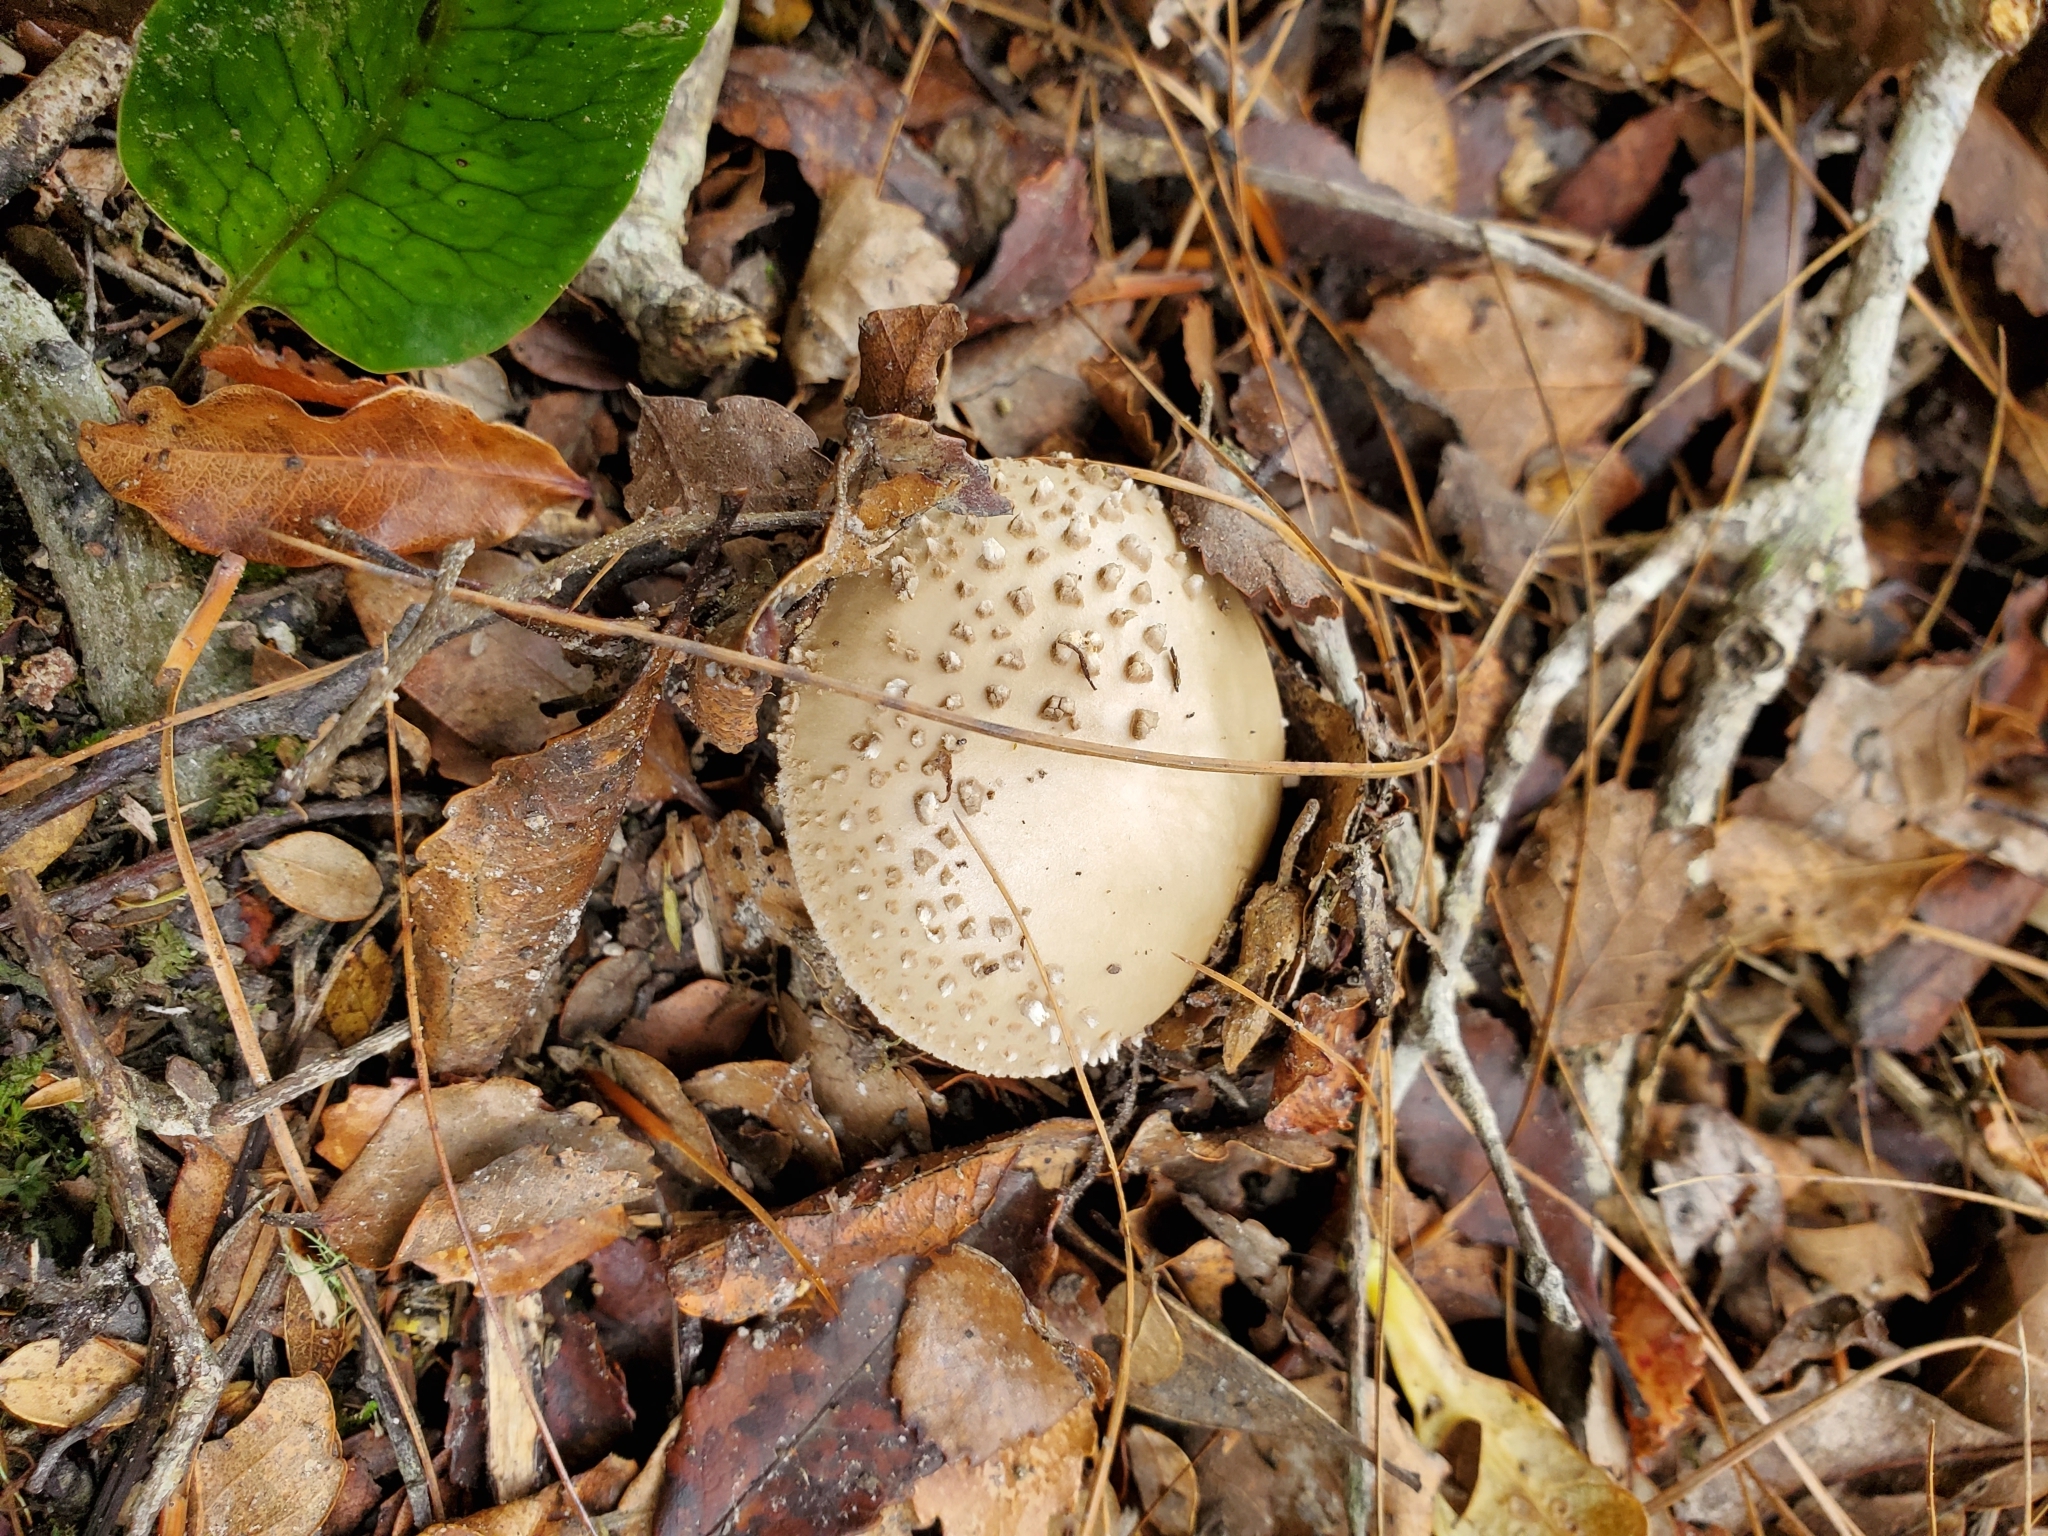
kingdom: Fungi
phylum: Basidiomycota
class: Agaricomycetes
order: Agaricales
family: Amanitaceae
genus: Amanita
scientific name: Amanita australis
